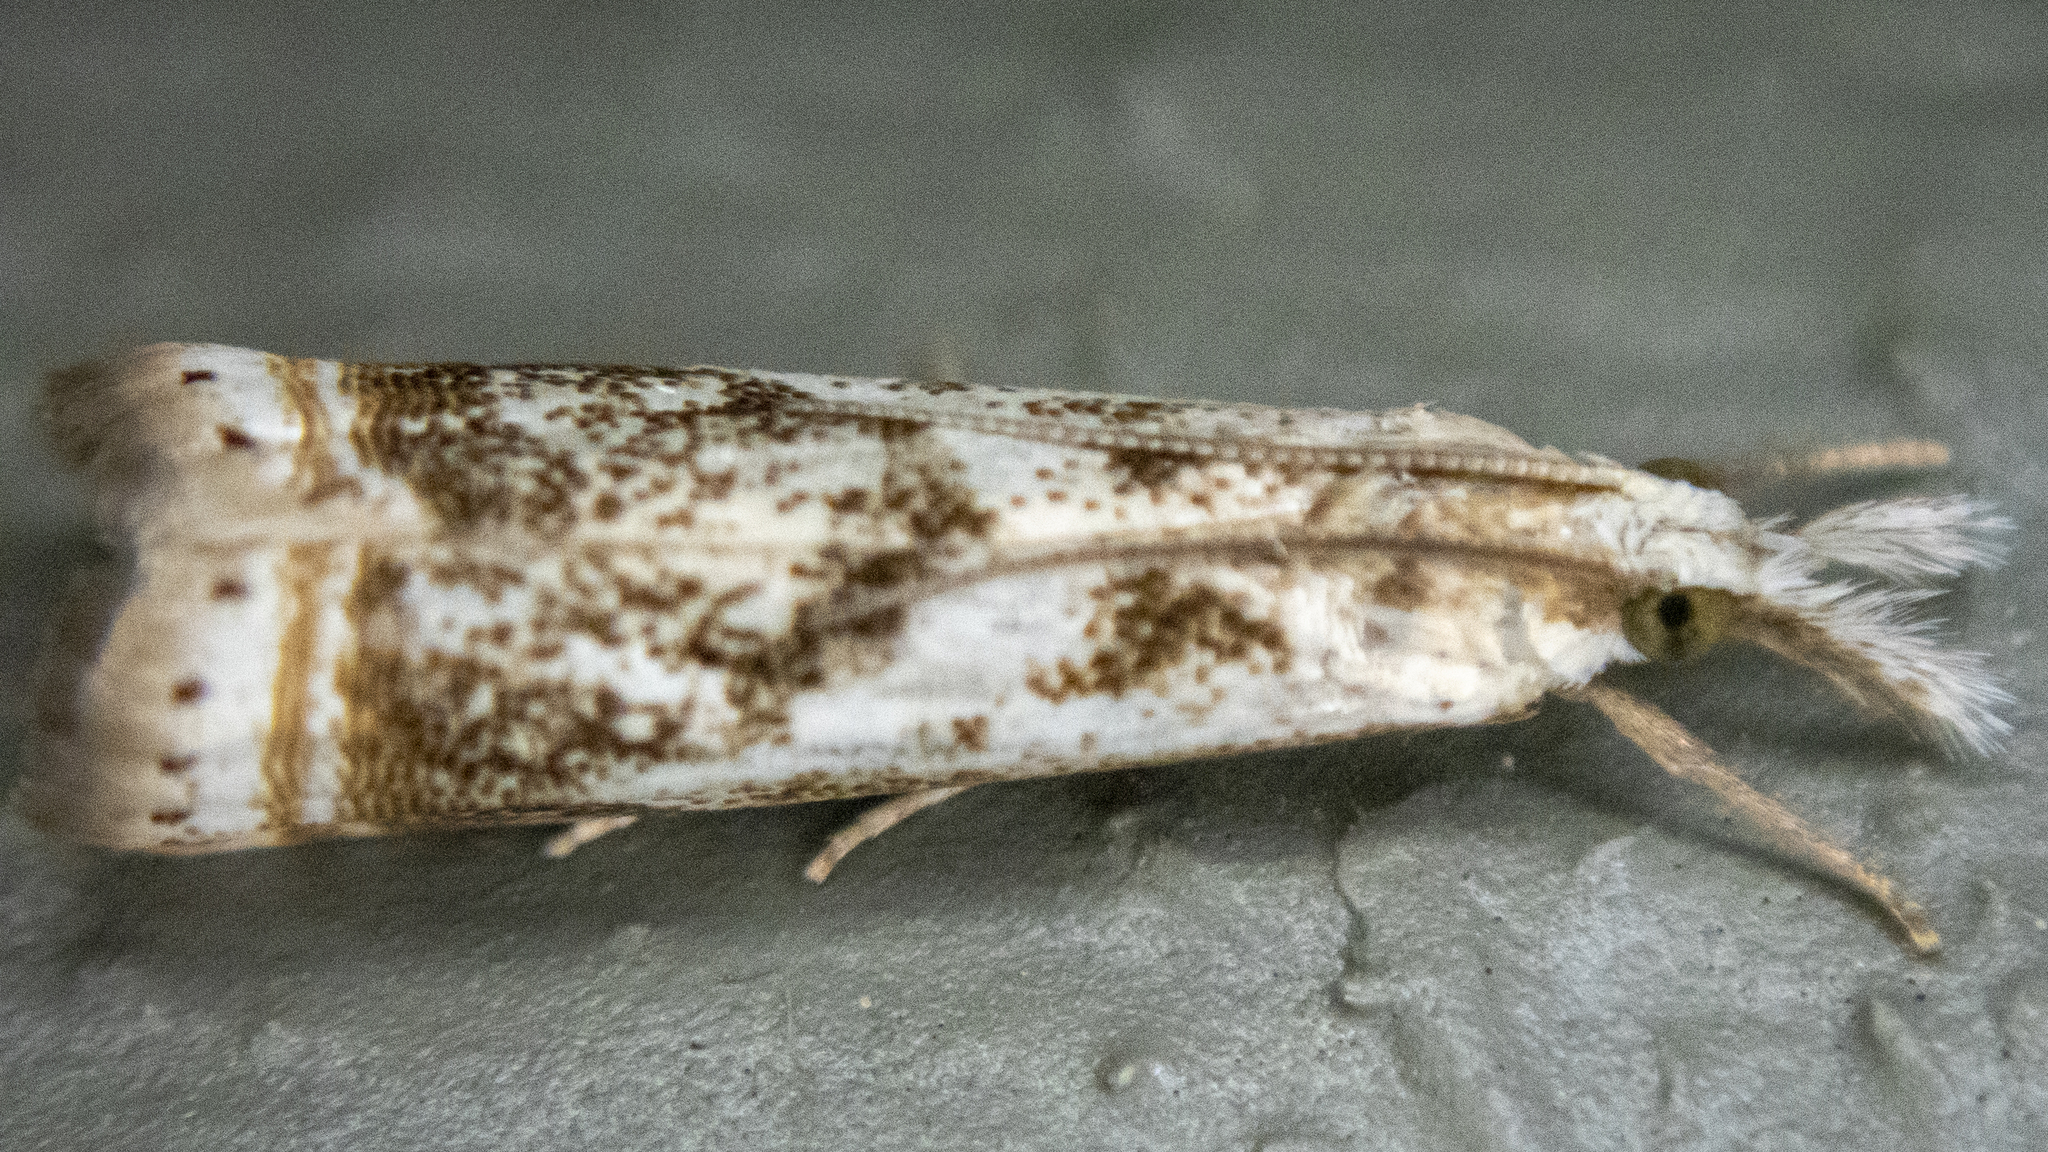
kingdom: Animalia
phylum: Arthropoda
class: Insecta
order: Lepidoptera
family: Crambidae
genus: Microcrambus
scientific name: Microcrambus elegans
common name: Elegant grass-veneer
